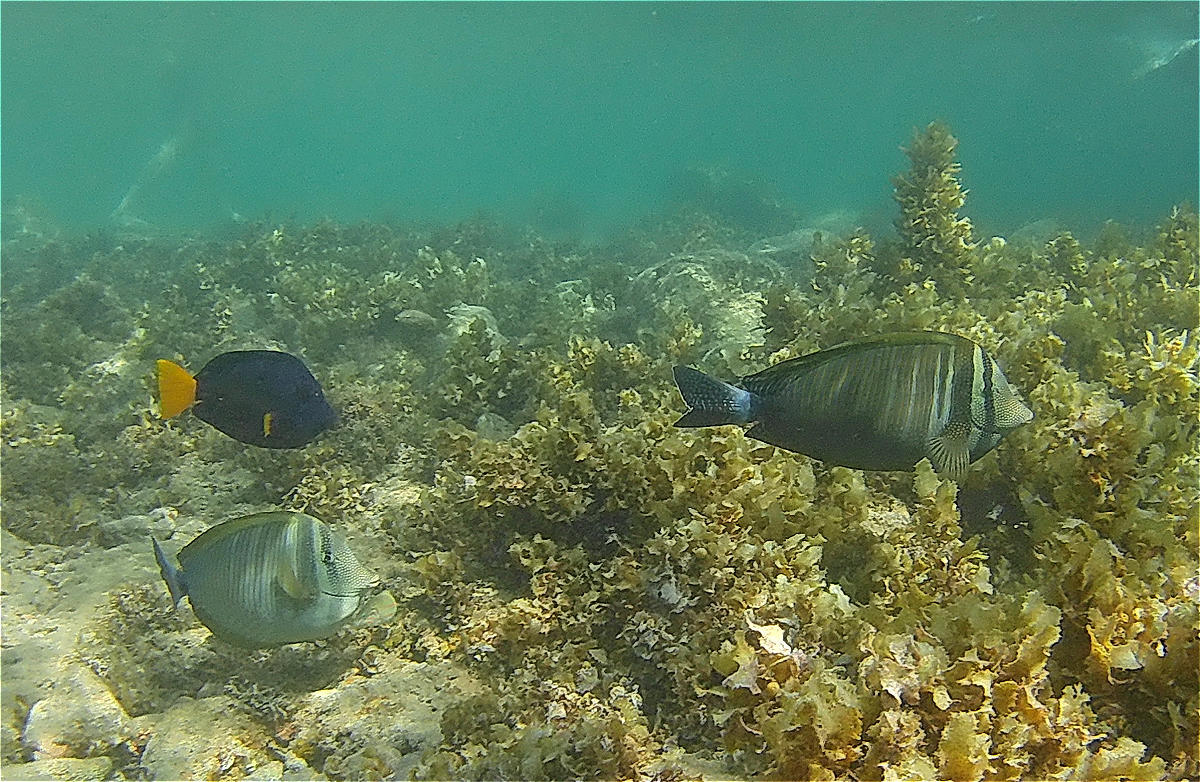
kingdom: Animalia
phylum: Chordata
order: Perciformes
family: Acanthuridae
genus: Zebrasoma
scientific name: Zebrasoma desjardinii
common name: Desjardin's sailfin tang
